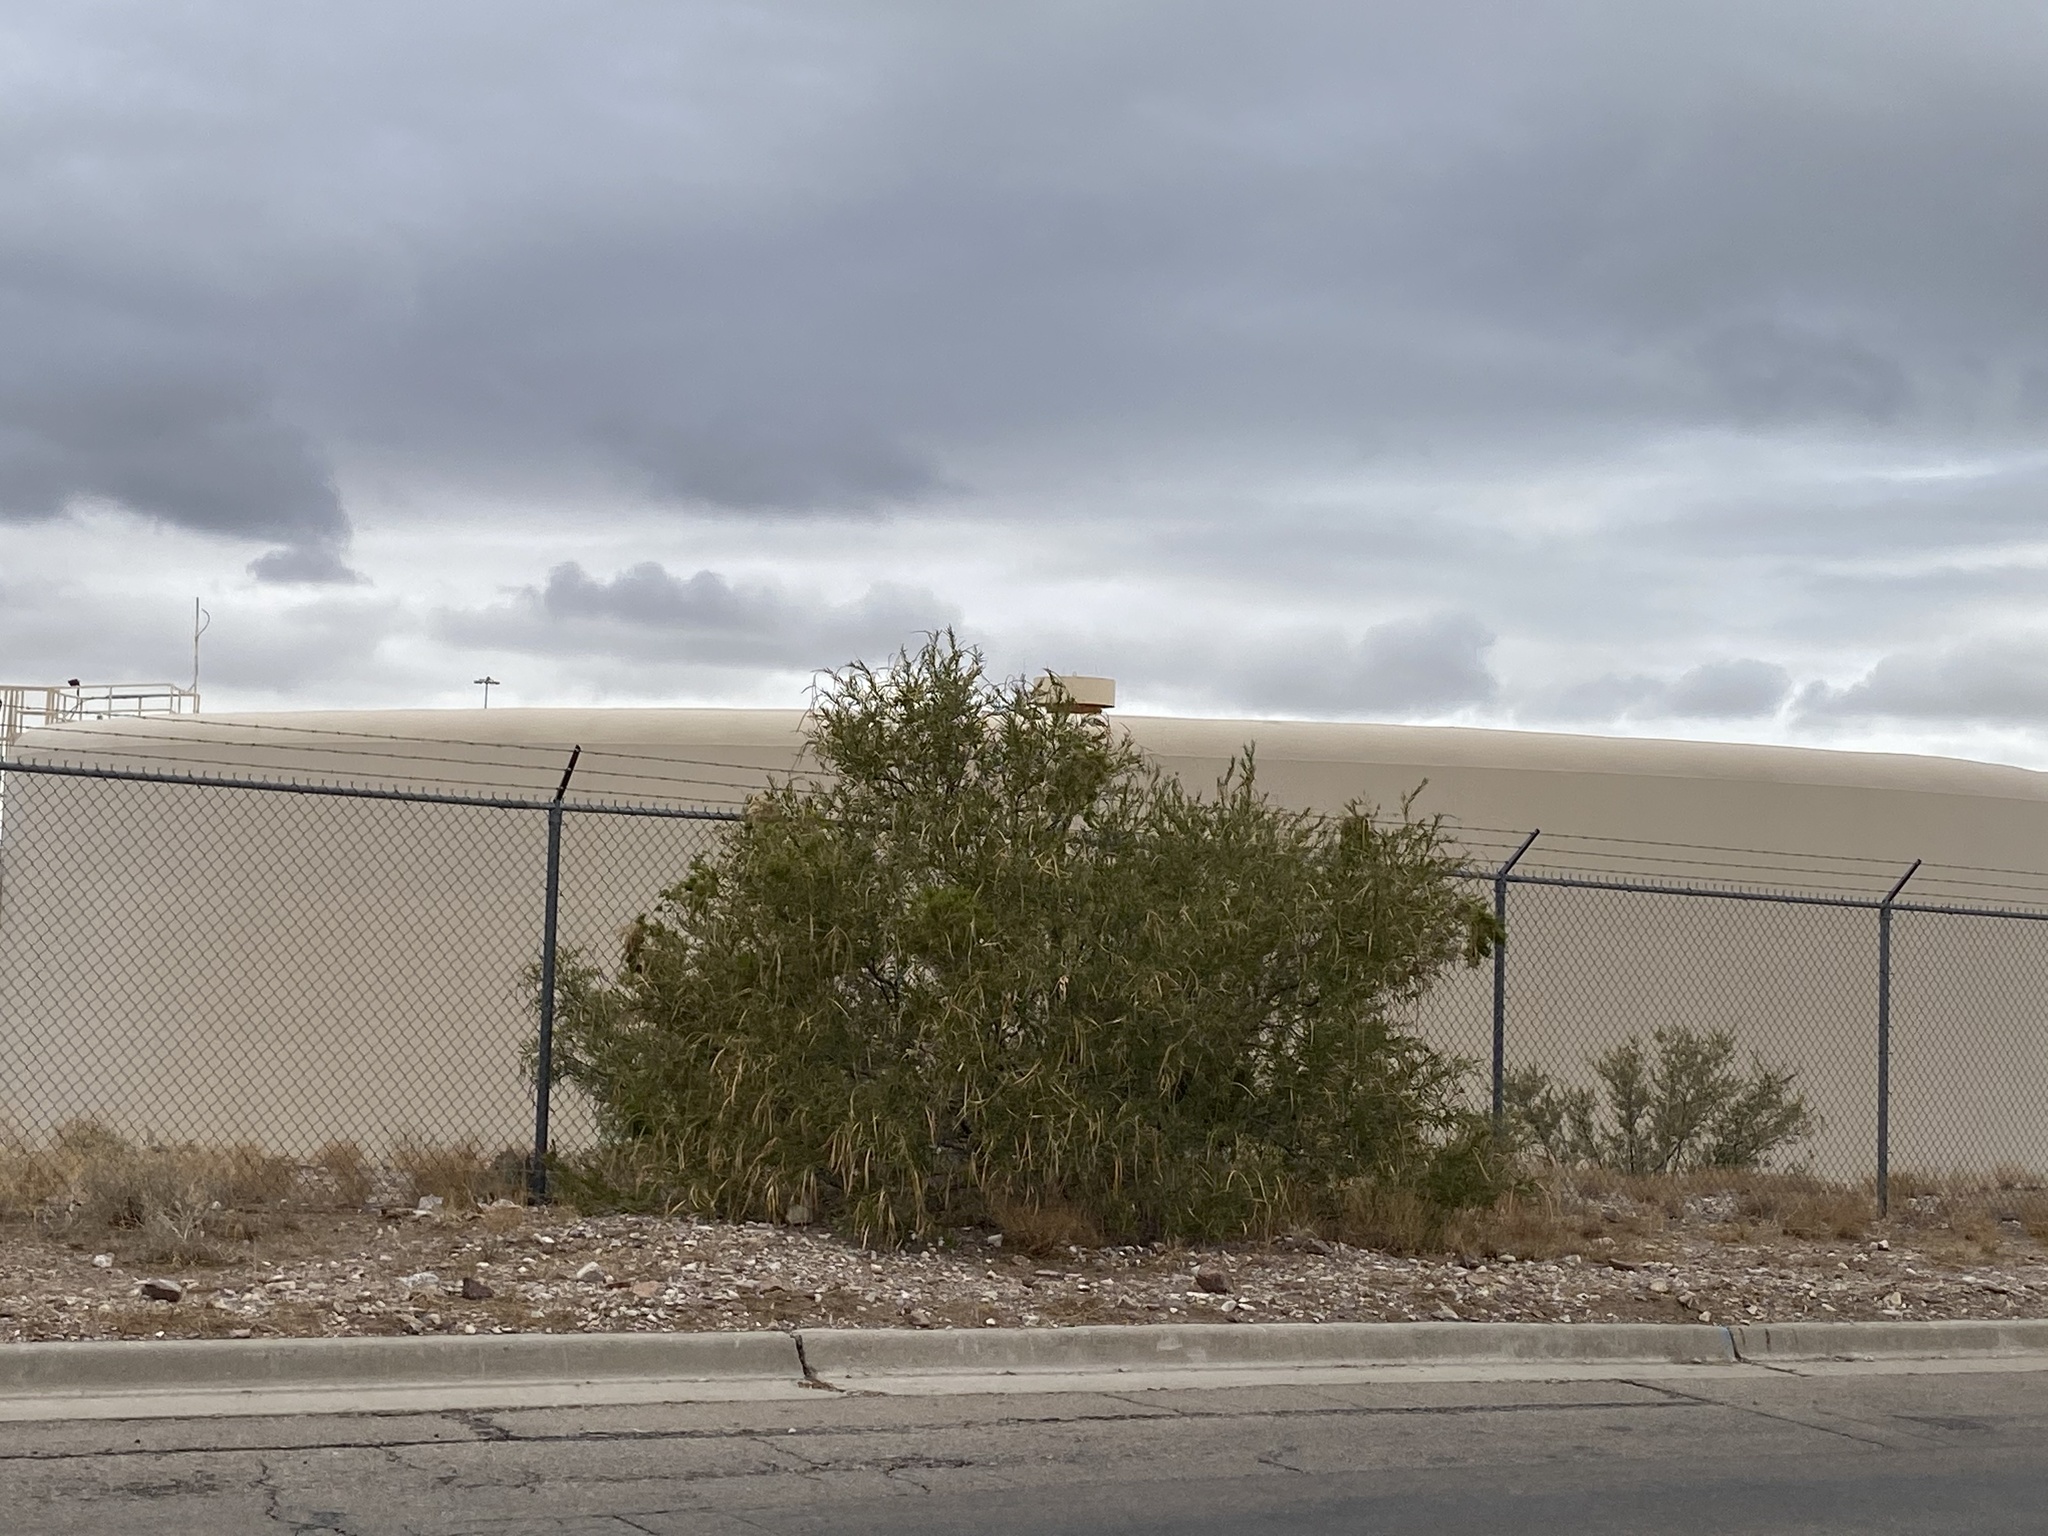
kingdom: Plantae
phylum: Tracheophyta
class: Magnoliopsida
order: Lamiales
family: Bignoniaceae
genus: Chilopsis
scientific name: Chilopsis linearis
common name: Desert-willow
